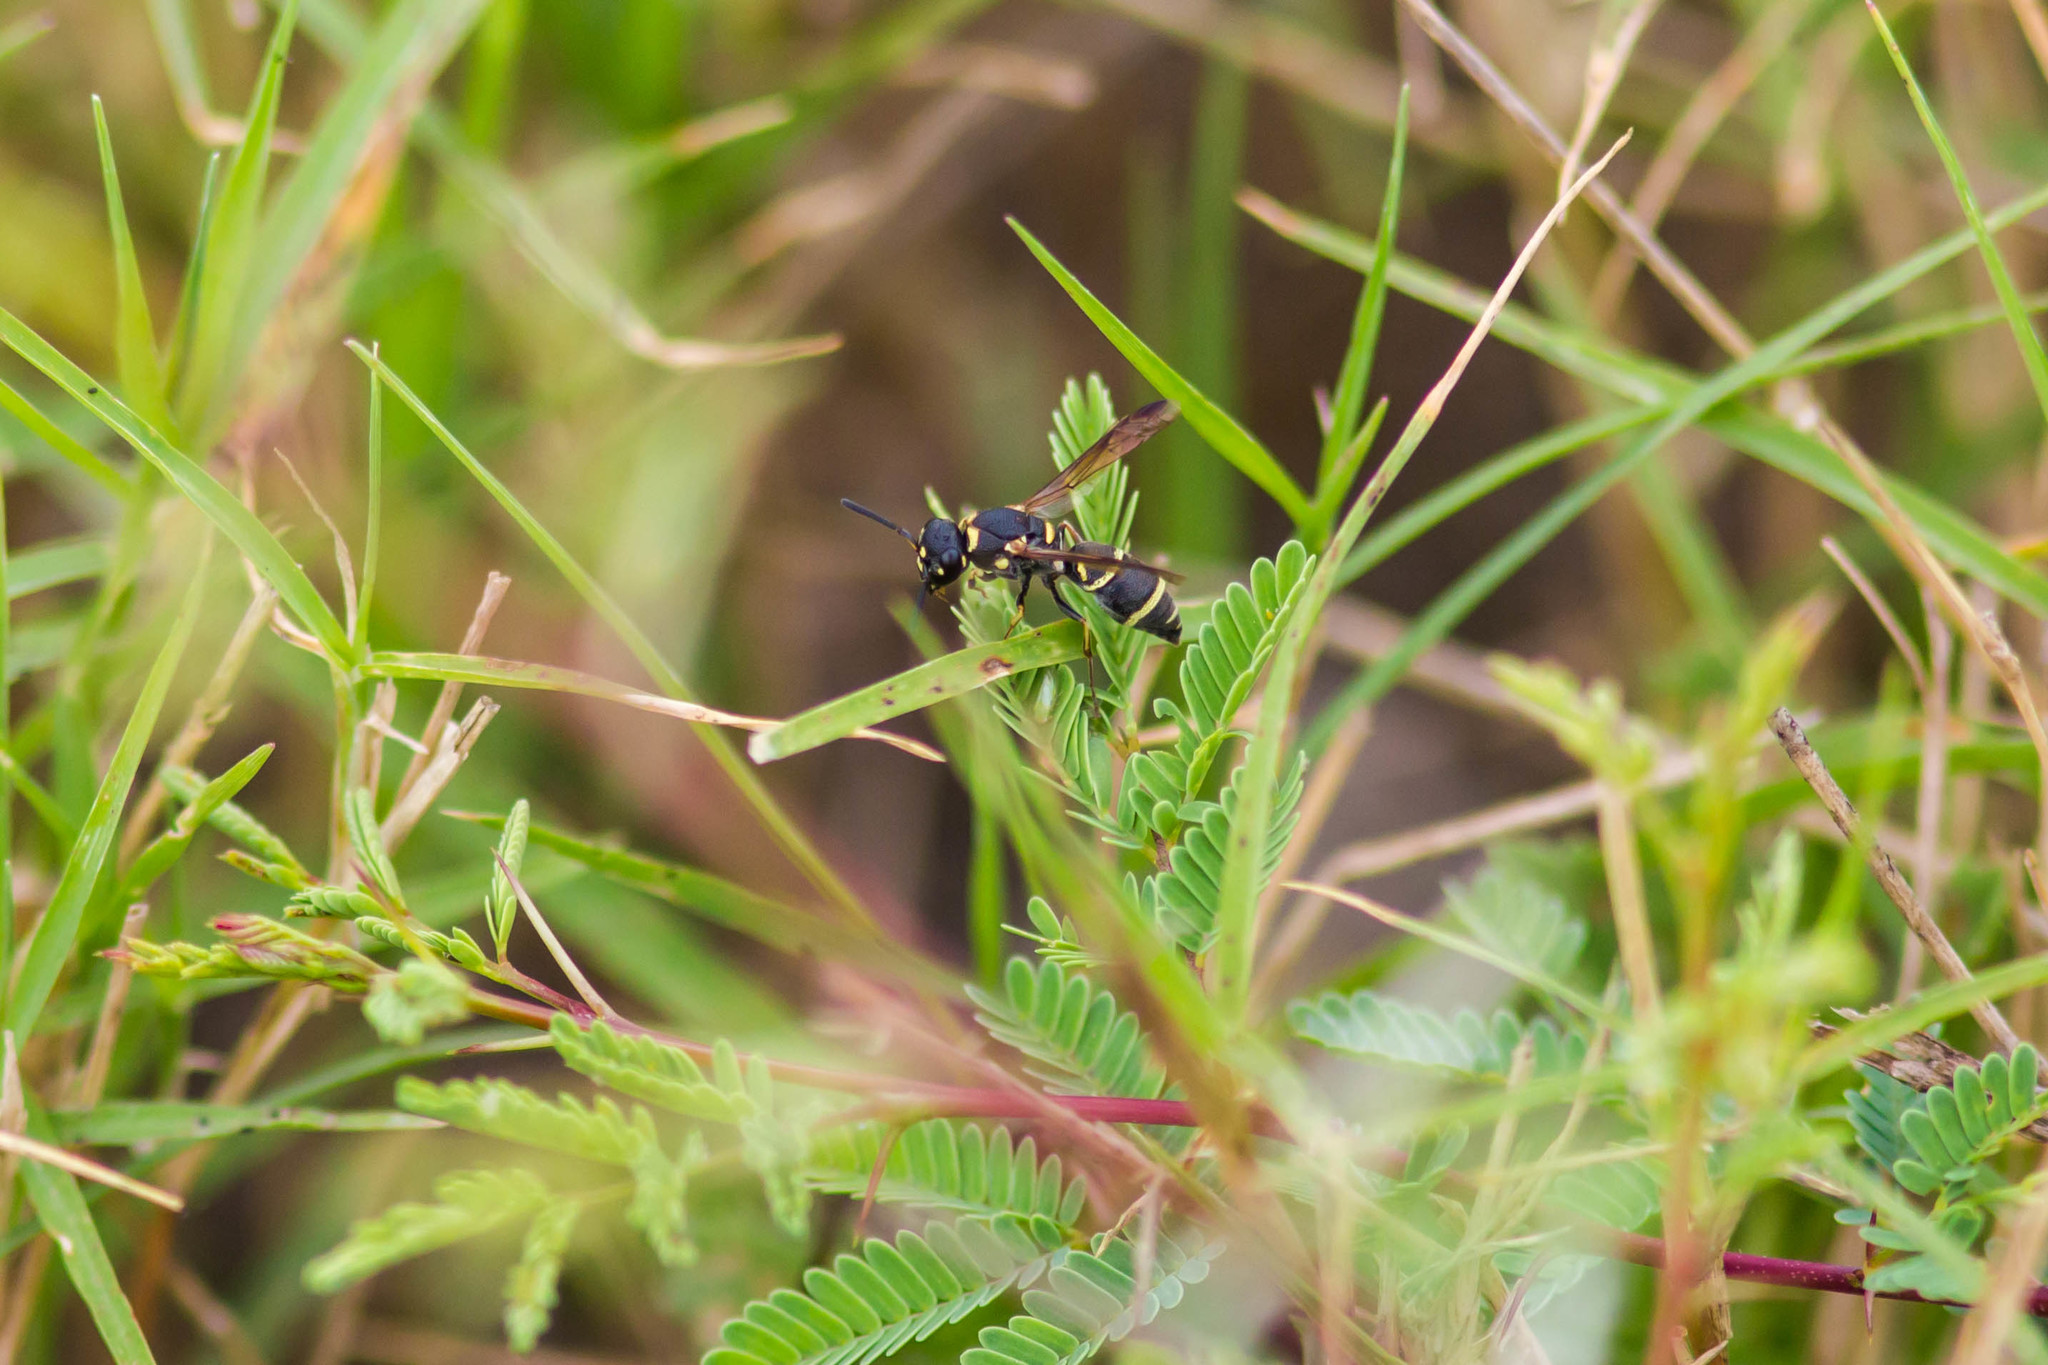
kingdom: Animalia
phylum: Arthropoda
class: Insecta
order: Hymenoptera
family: Eumenidae
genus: Parancistrocerus
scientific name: Parancistrocerus texensis
